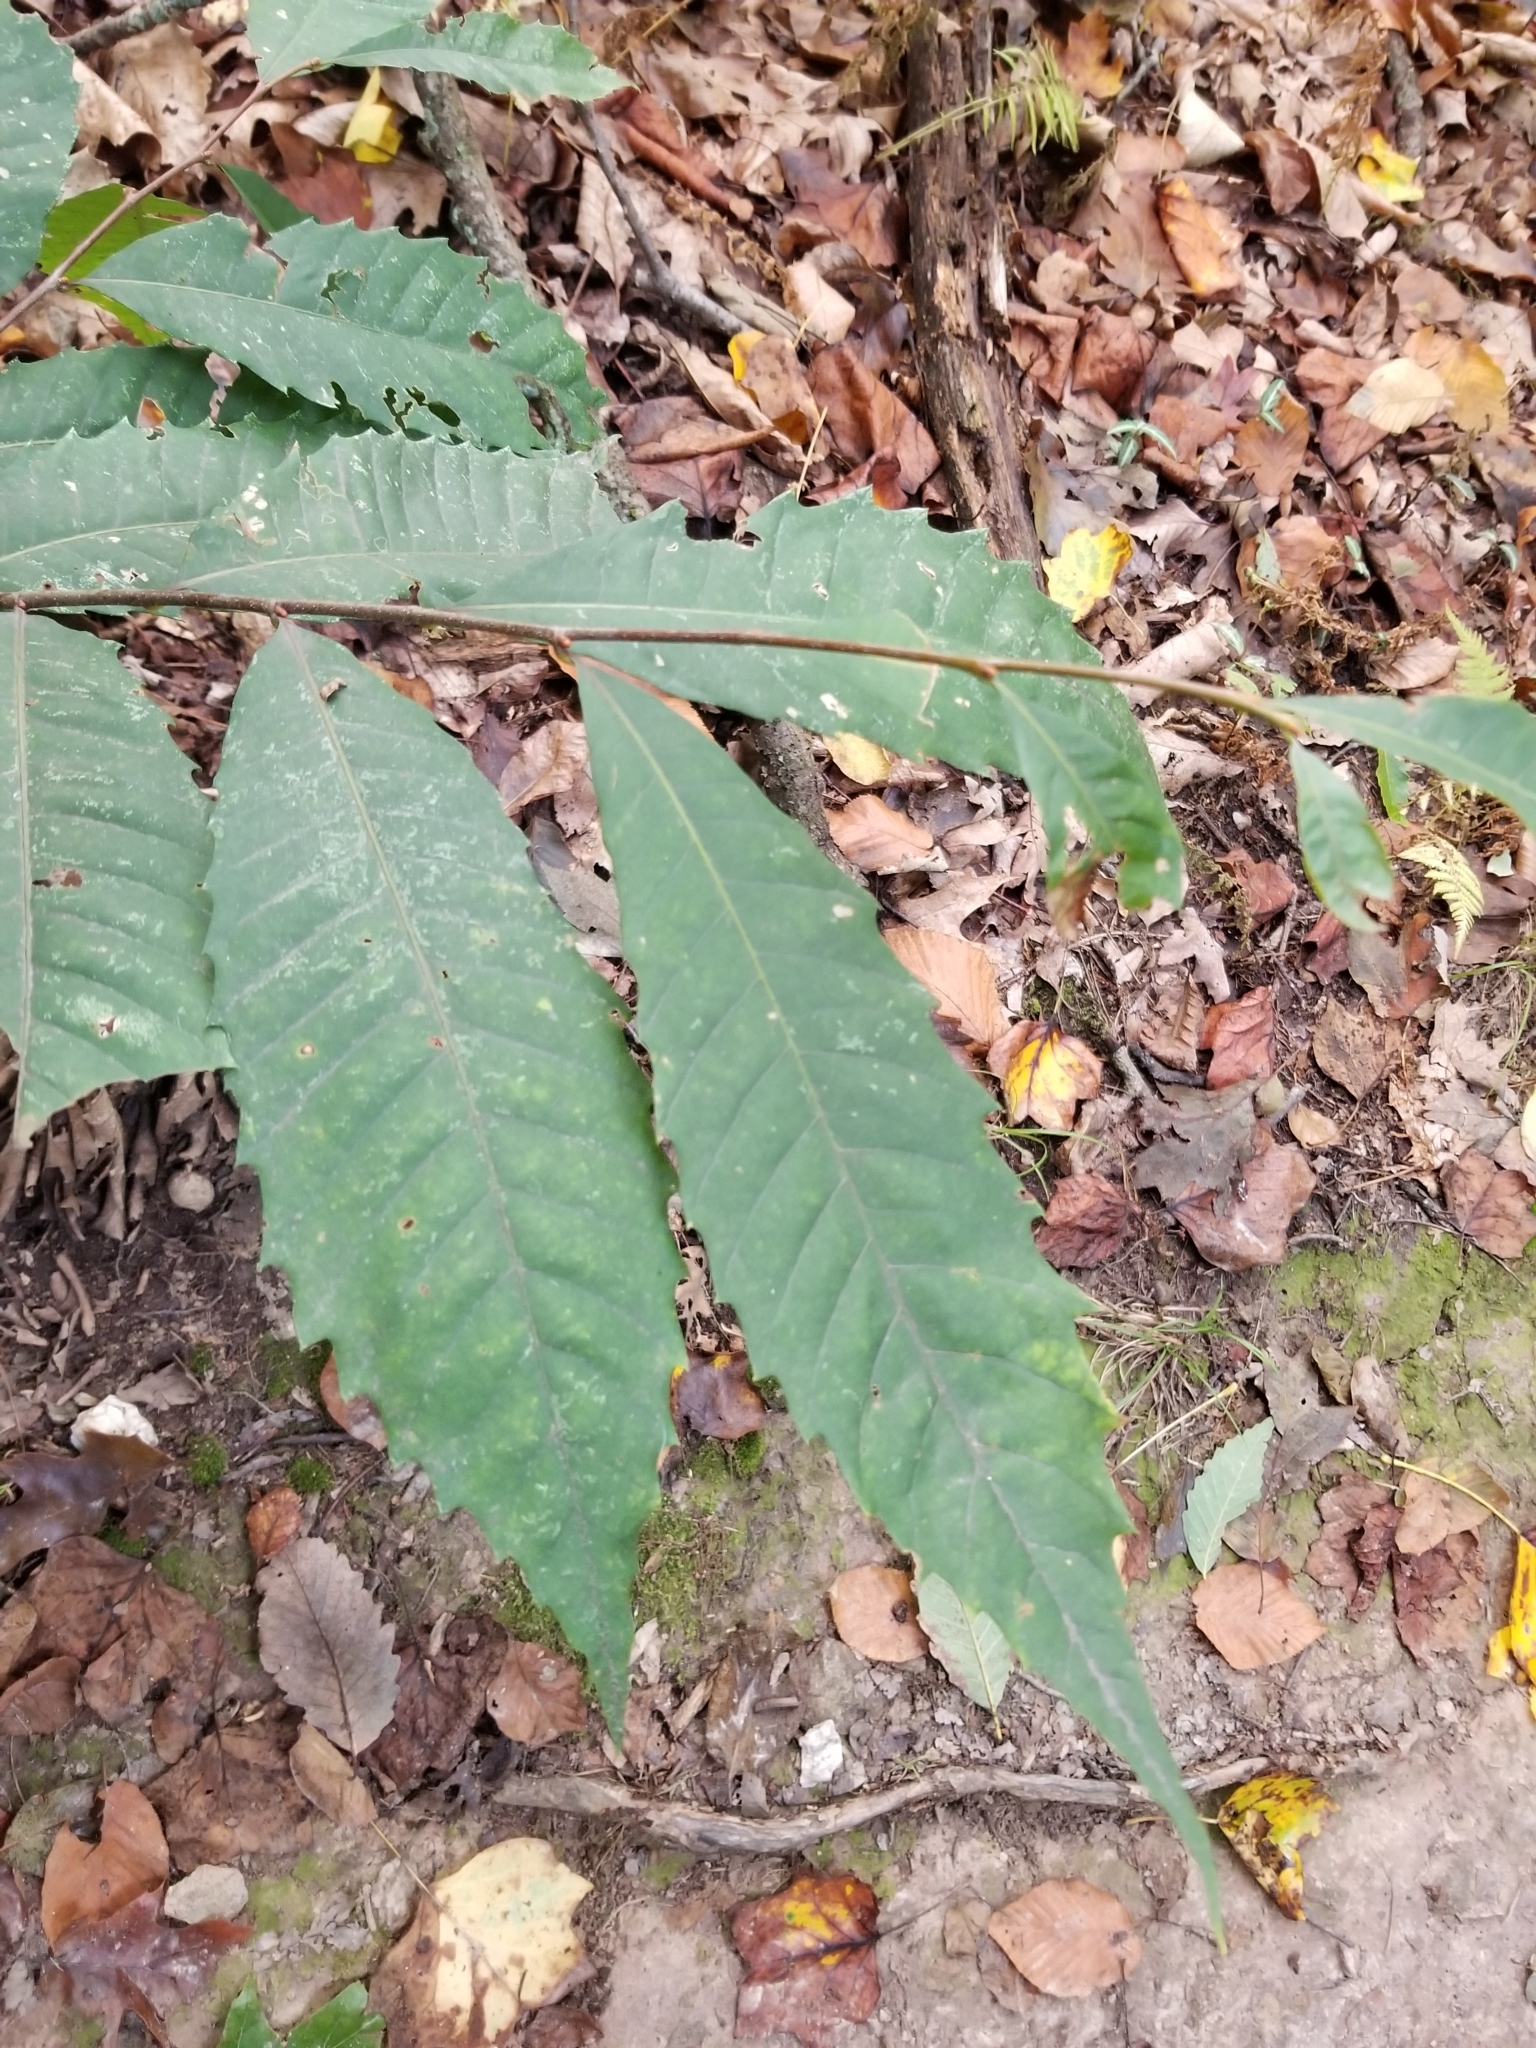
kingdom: Plantae
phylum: Tracheophyta
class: Magnoliopsida
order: Fagales
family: Fagaceae
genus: Castanea
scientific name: Castanea dentata
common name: American chestnut
